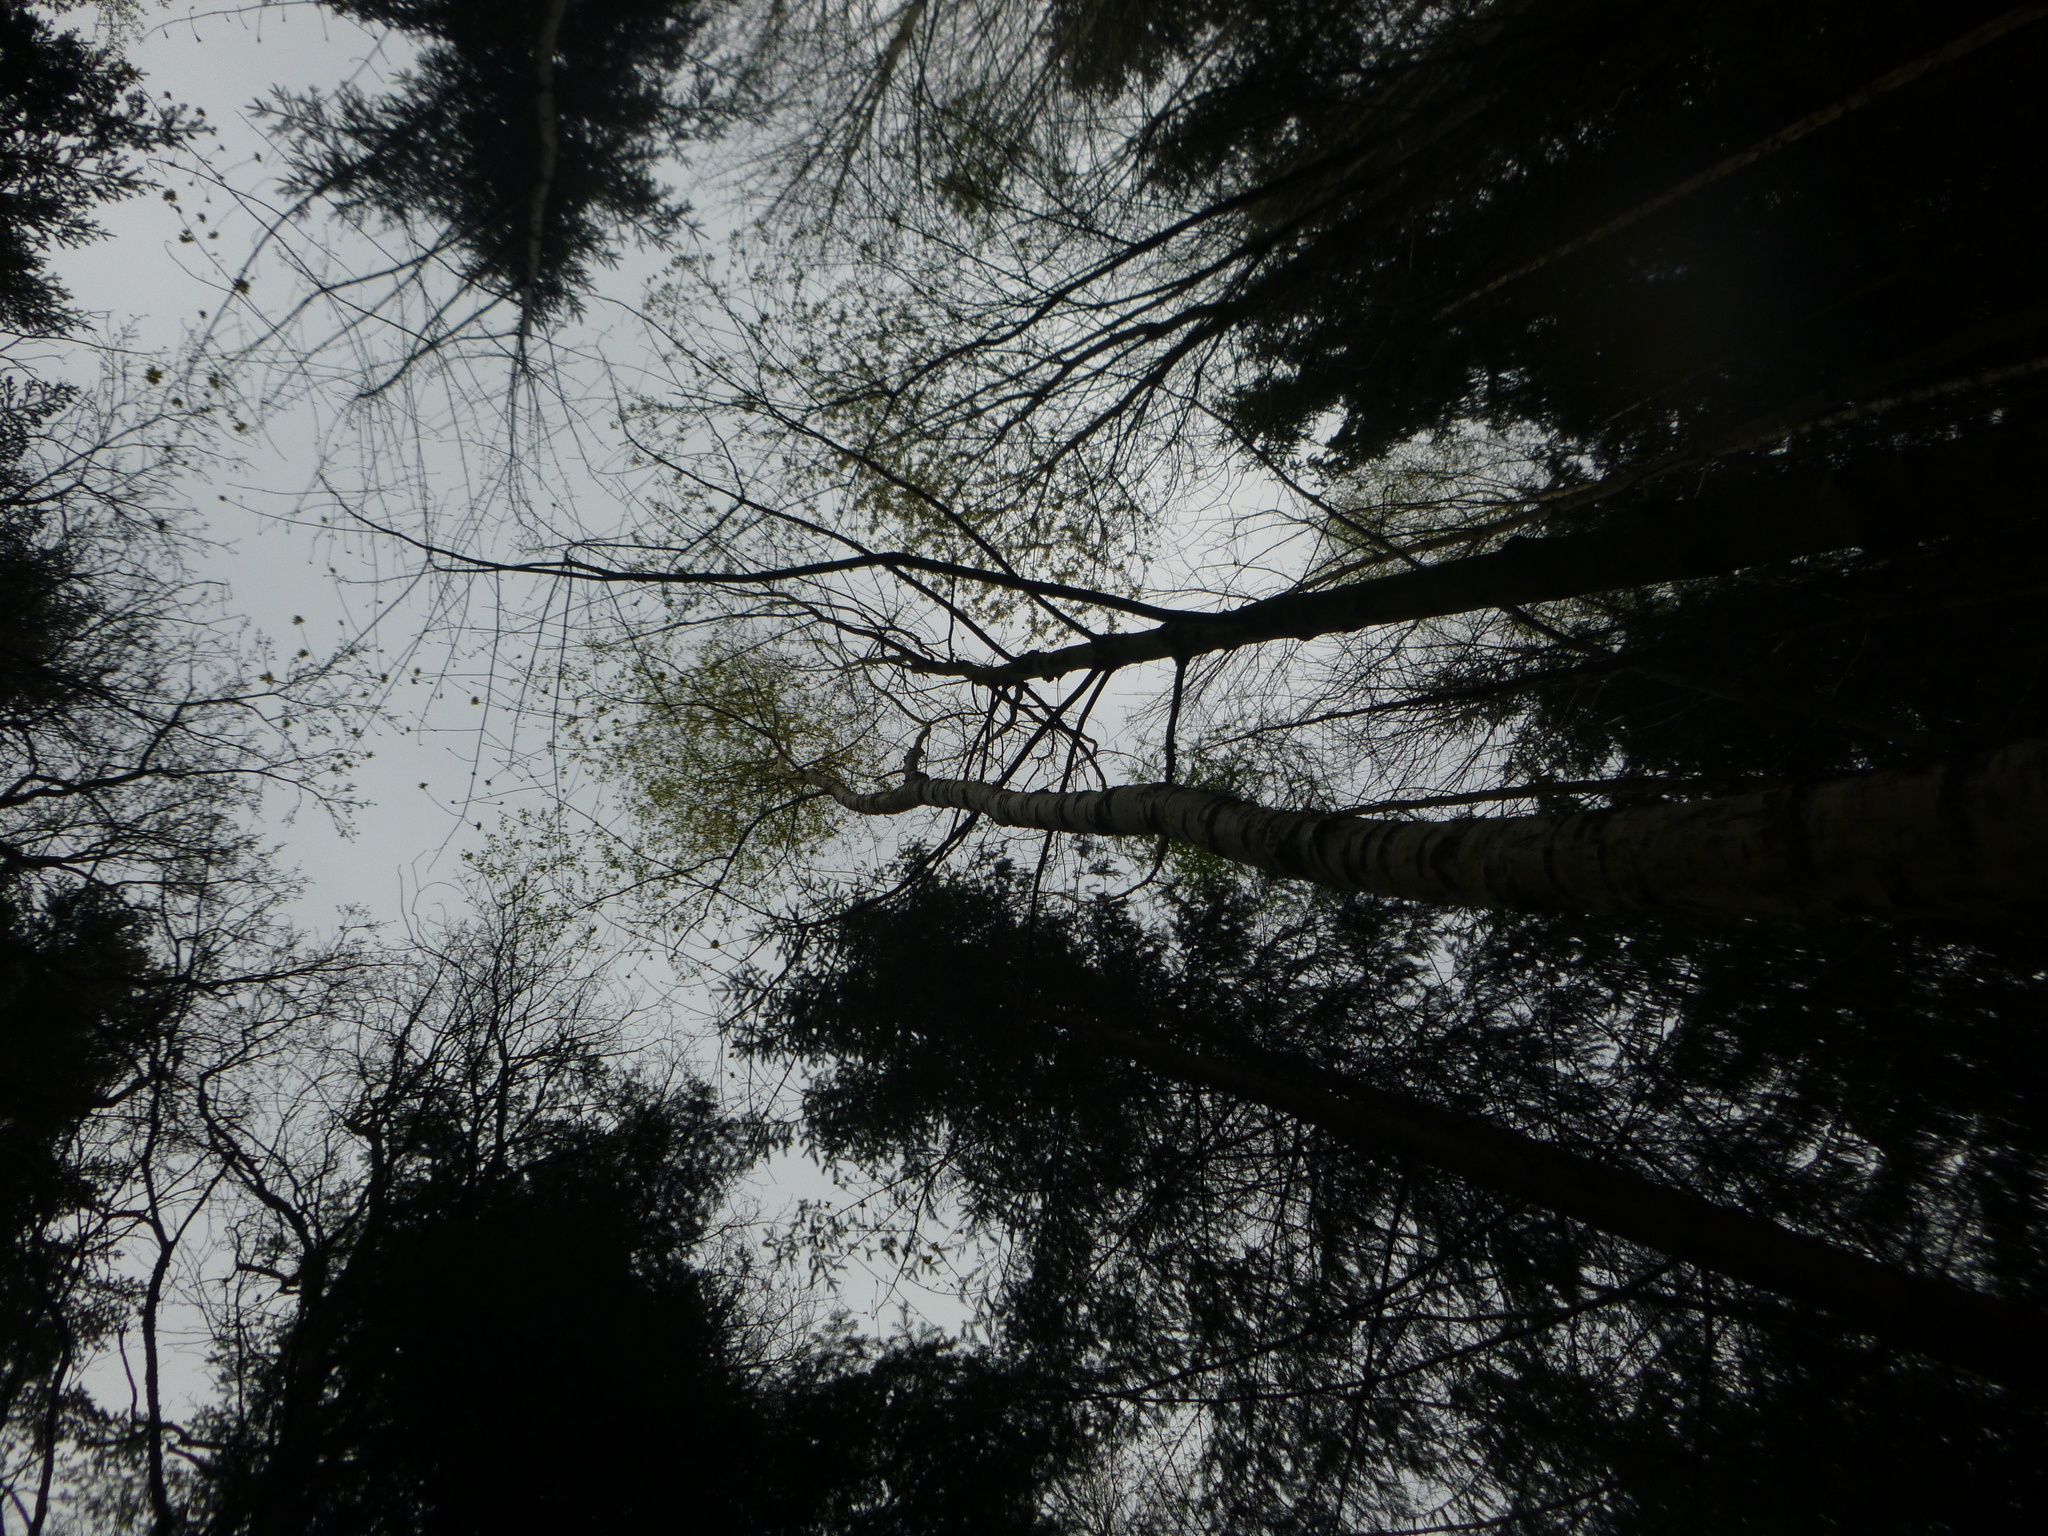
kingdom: Plantae
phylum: Tracheophyta
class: Magnoliopsida
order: Fagales
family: Betulaceae
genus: Betula
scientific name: Betula pendula
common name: Silver birch
